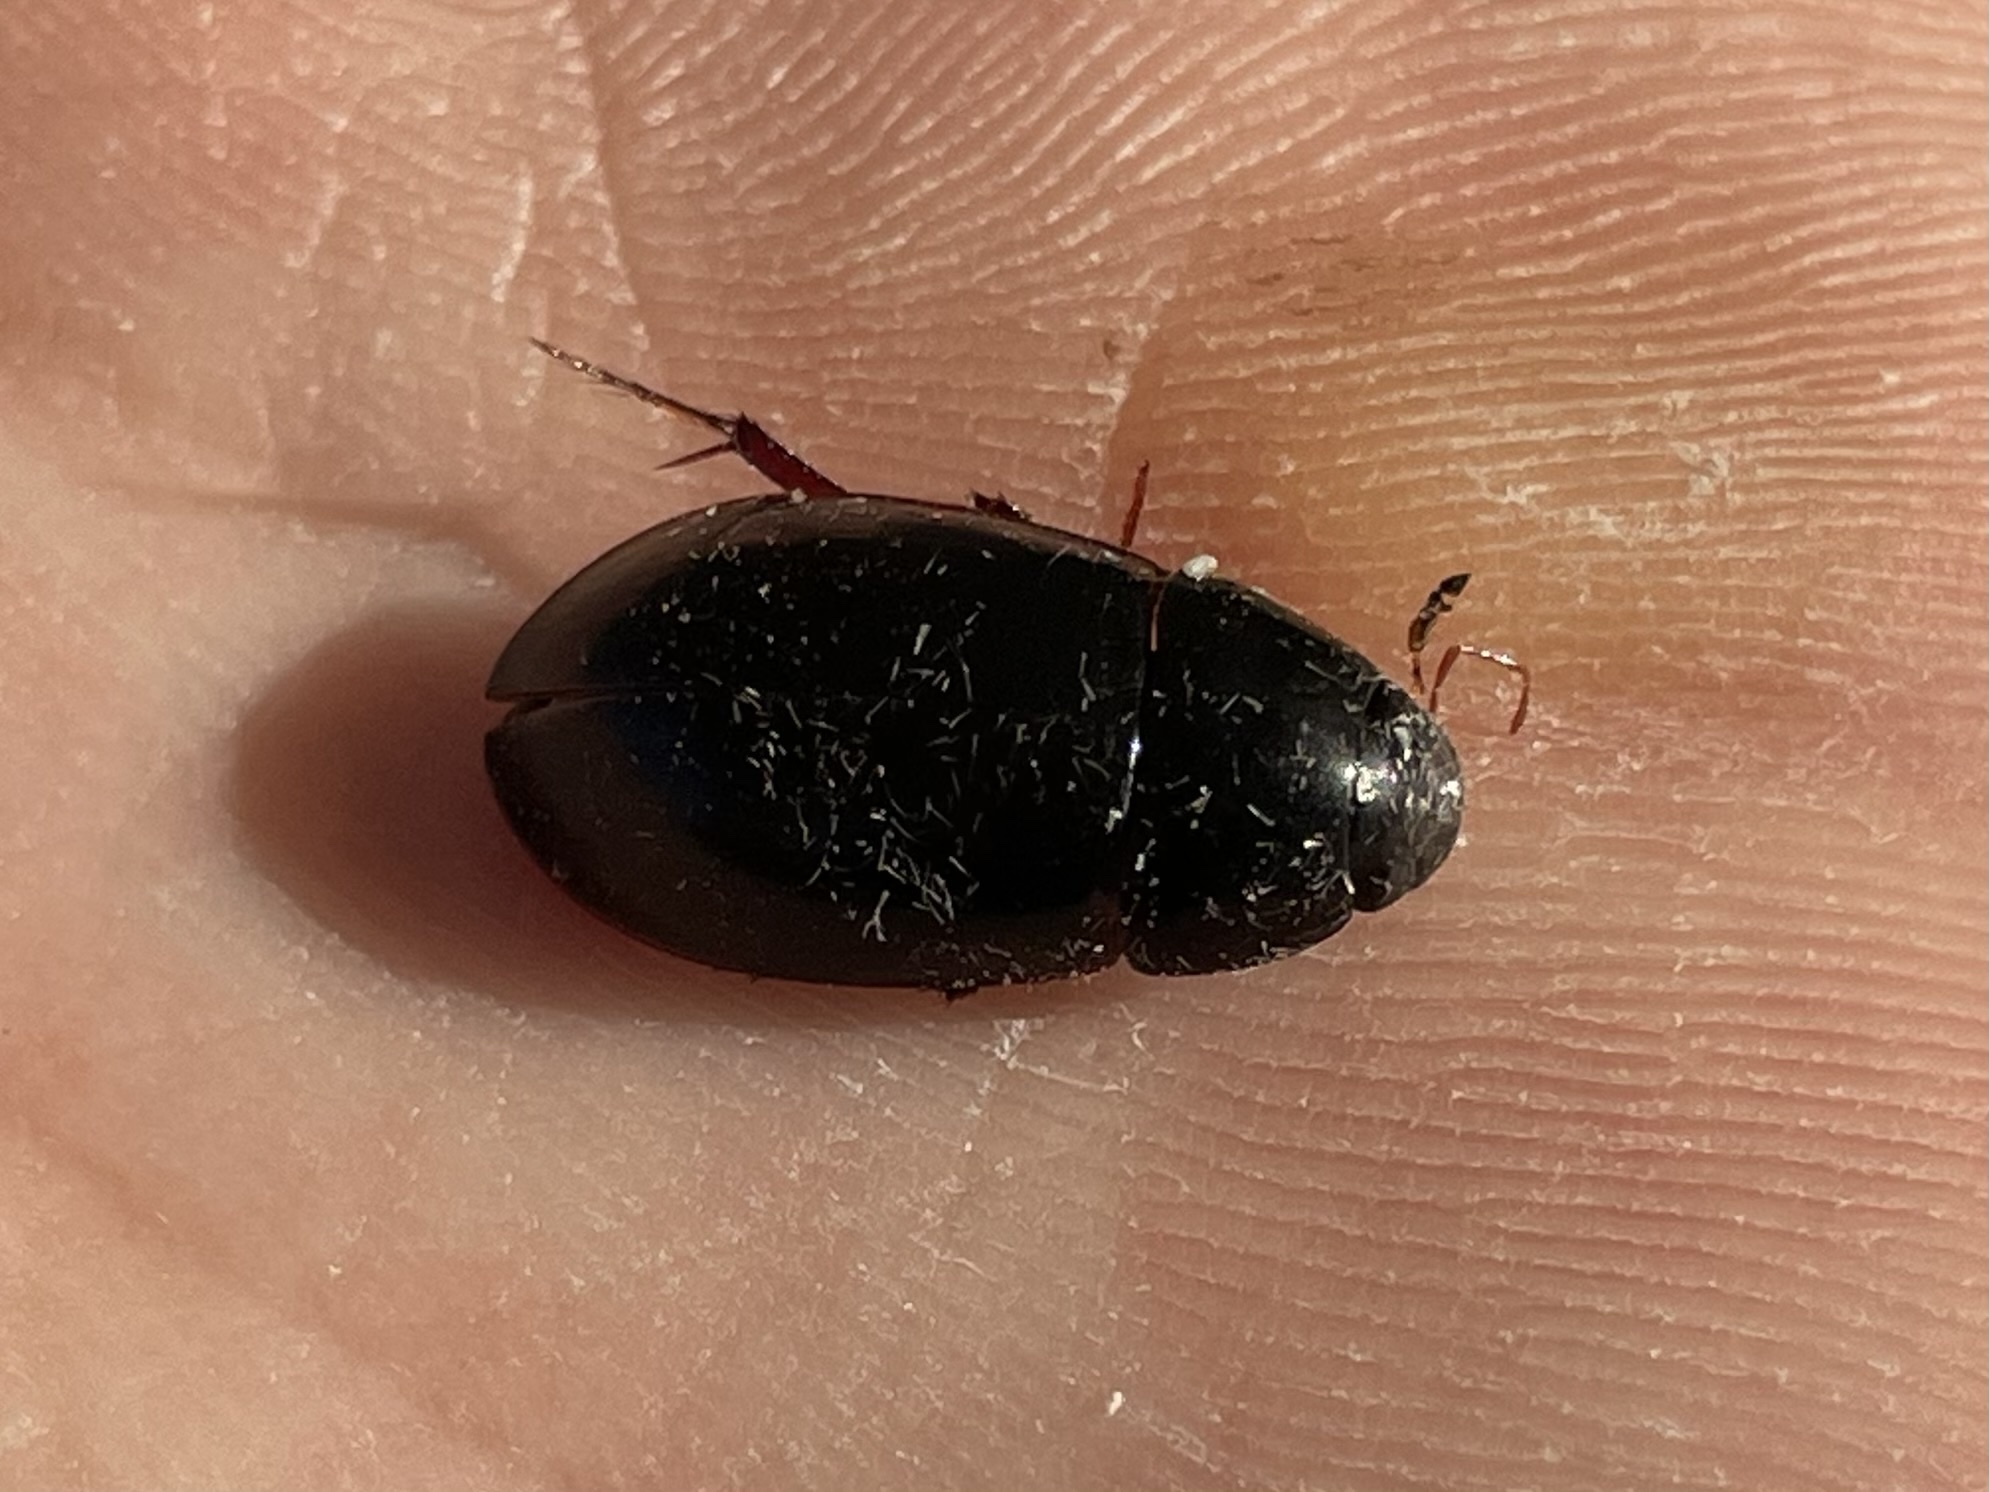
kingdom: Animalia
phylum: Arthropoda
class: Insecta
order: Coleoptera
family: Hydrophilidae
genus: Hydrobiomorpha
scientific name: Hydrobiomorpha casta
